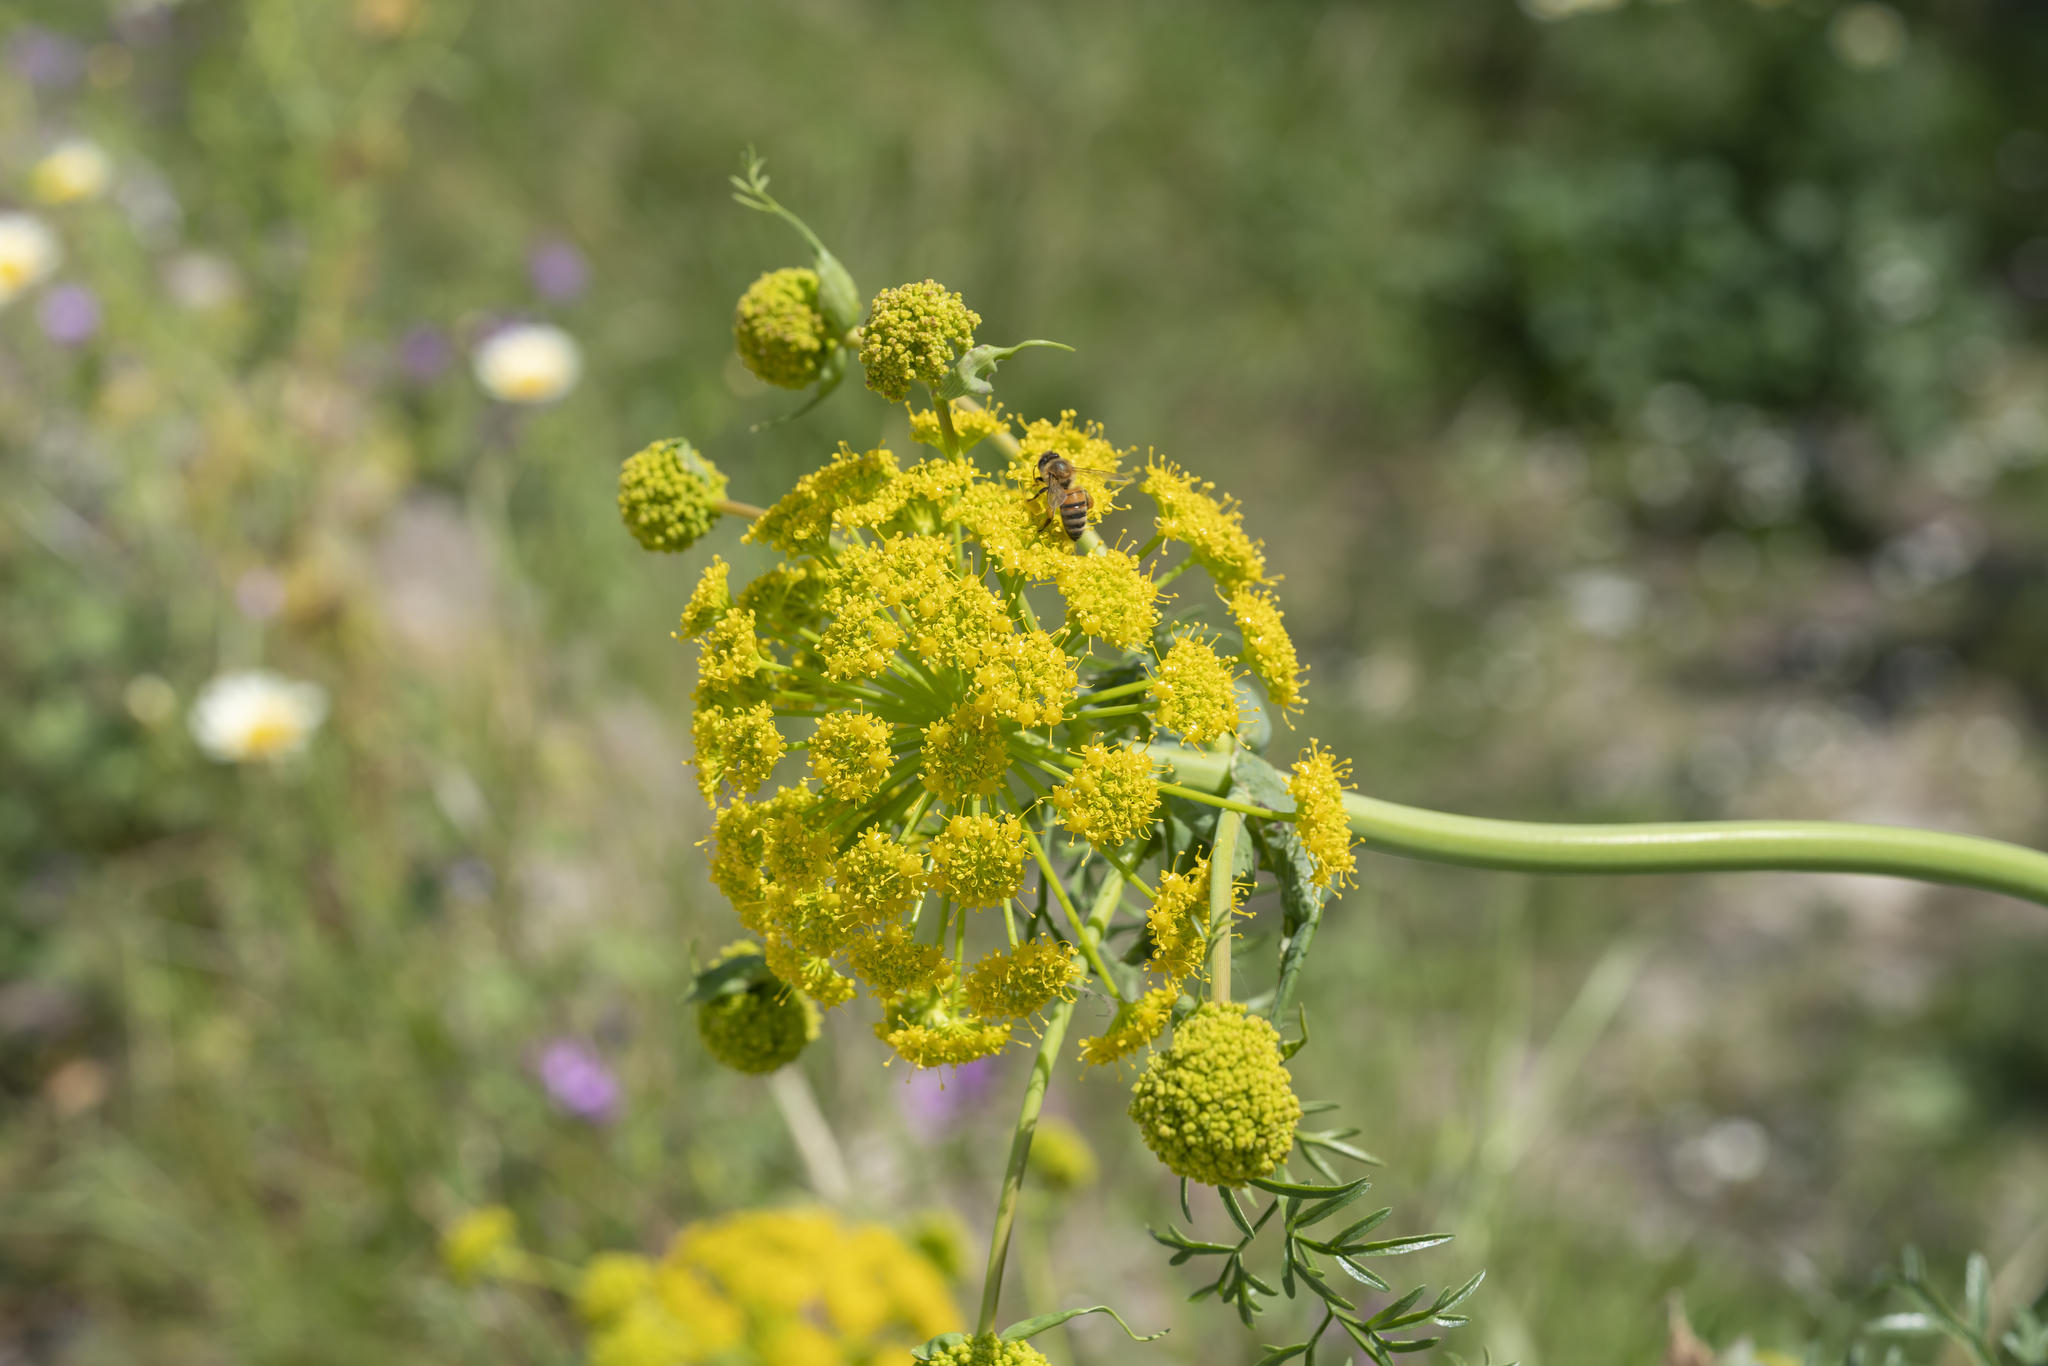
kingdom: Plantae
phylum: Tracheophyta
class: Magnoliopsida
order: Apiales
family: Apiaceae
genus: Ferula
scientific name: Ferula tingitana
